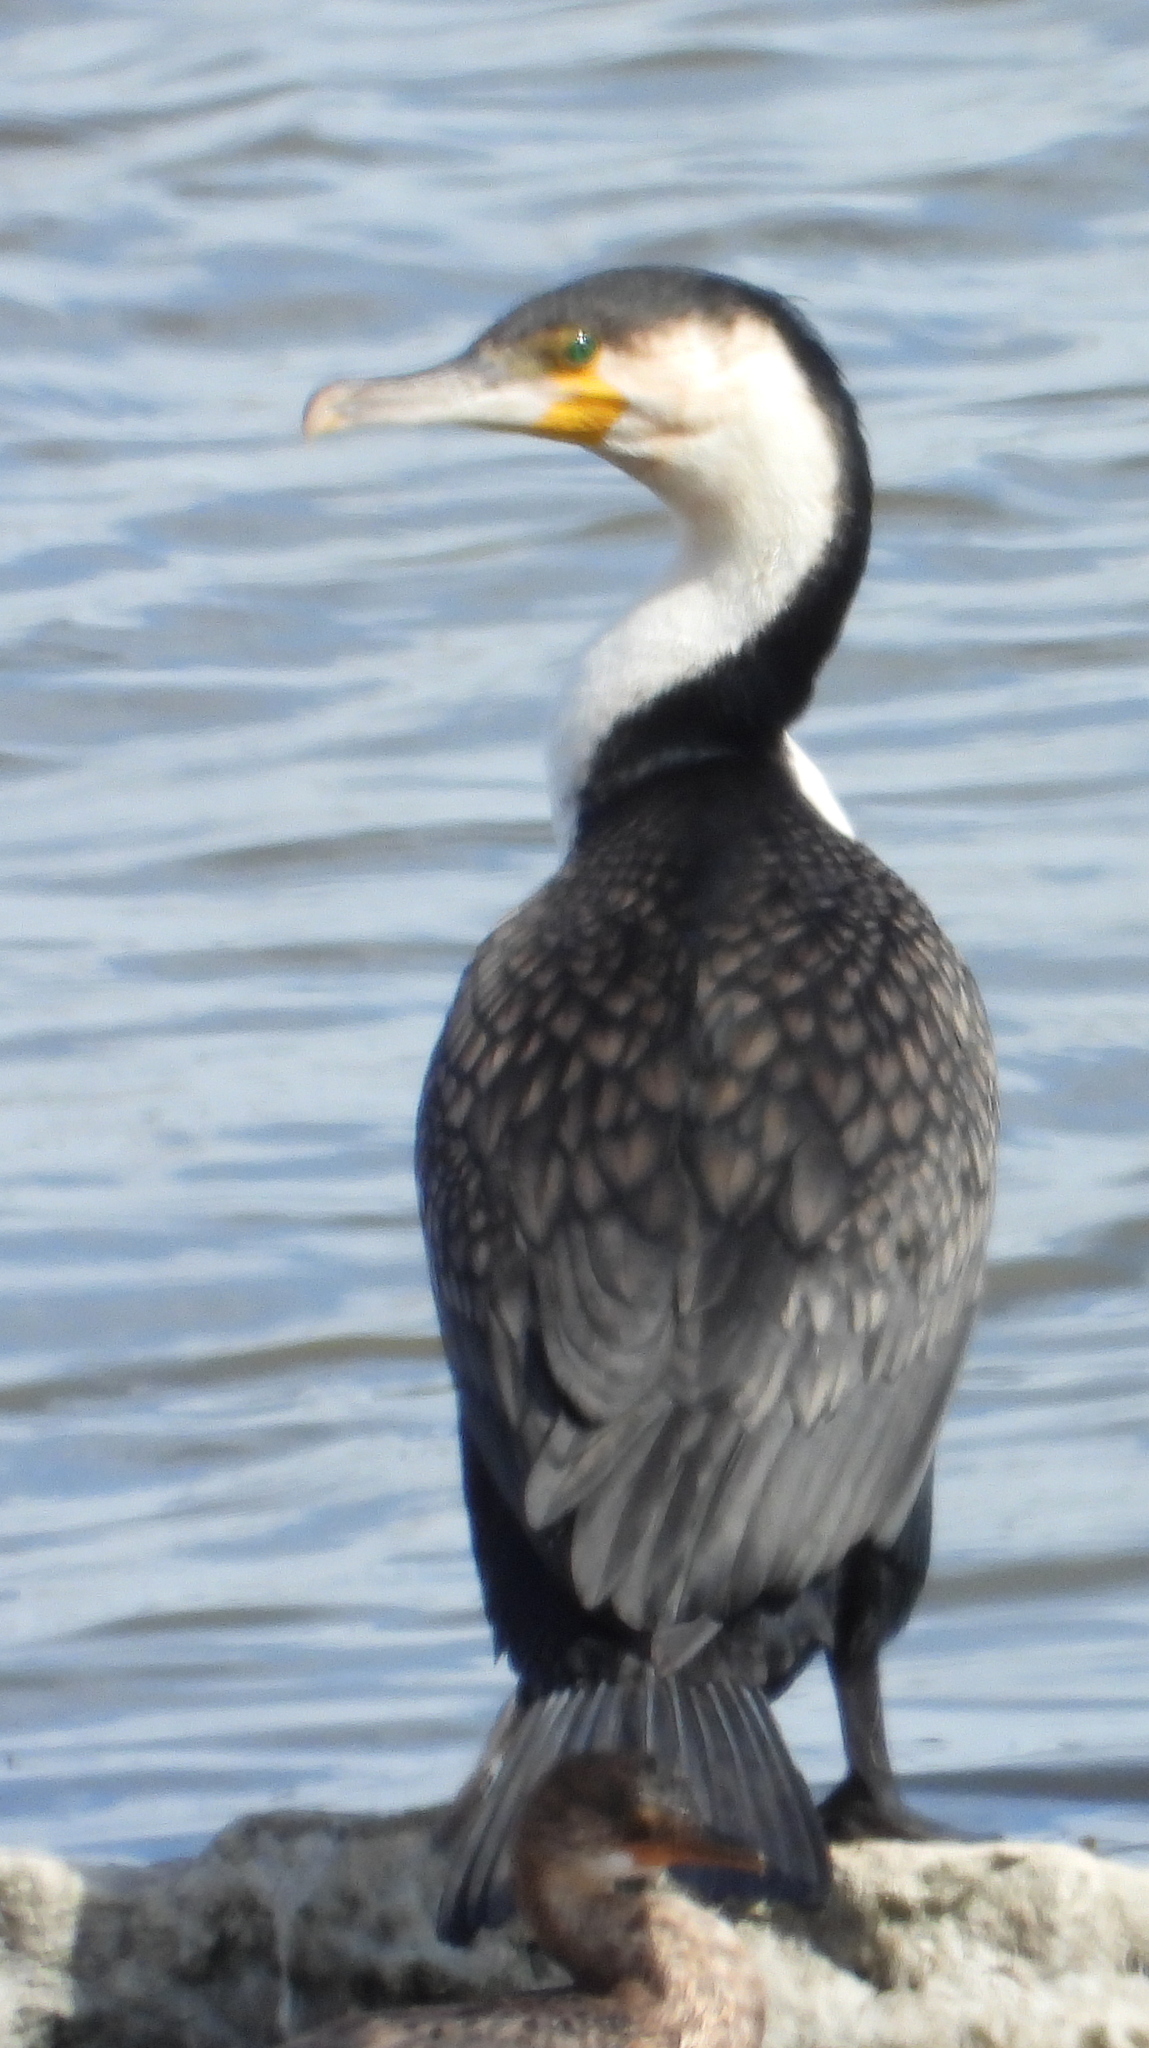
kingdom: Animalia
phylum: Chordata
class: Aves
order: Suliformes
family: Phalacrocoracidae
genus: Phalacrocorax
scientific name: Phalacrocorax carbo
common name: Great cormorant
